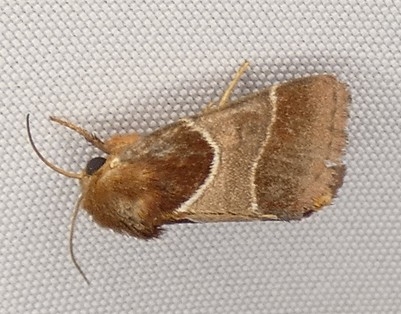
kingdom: Animalia
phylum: Arthropoda
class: Insecta
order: Lepidoptera
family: Noctuidae
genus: Schinia
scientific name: Schinia arcigera
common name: Arcigera flower moth
